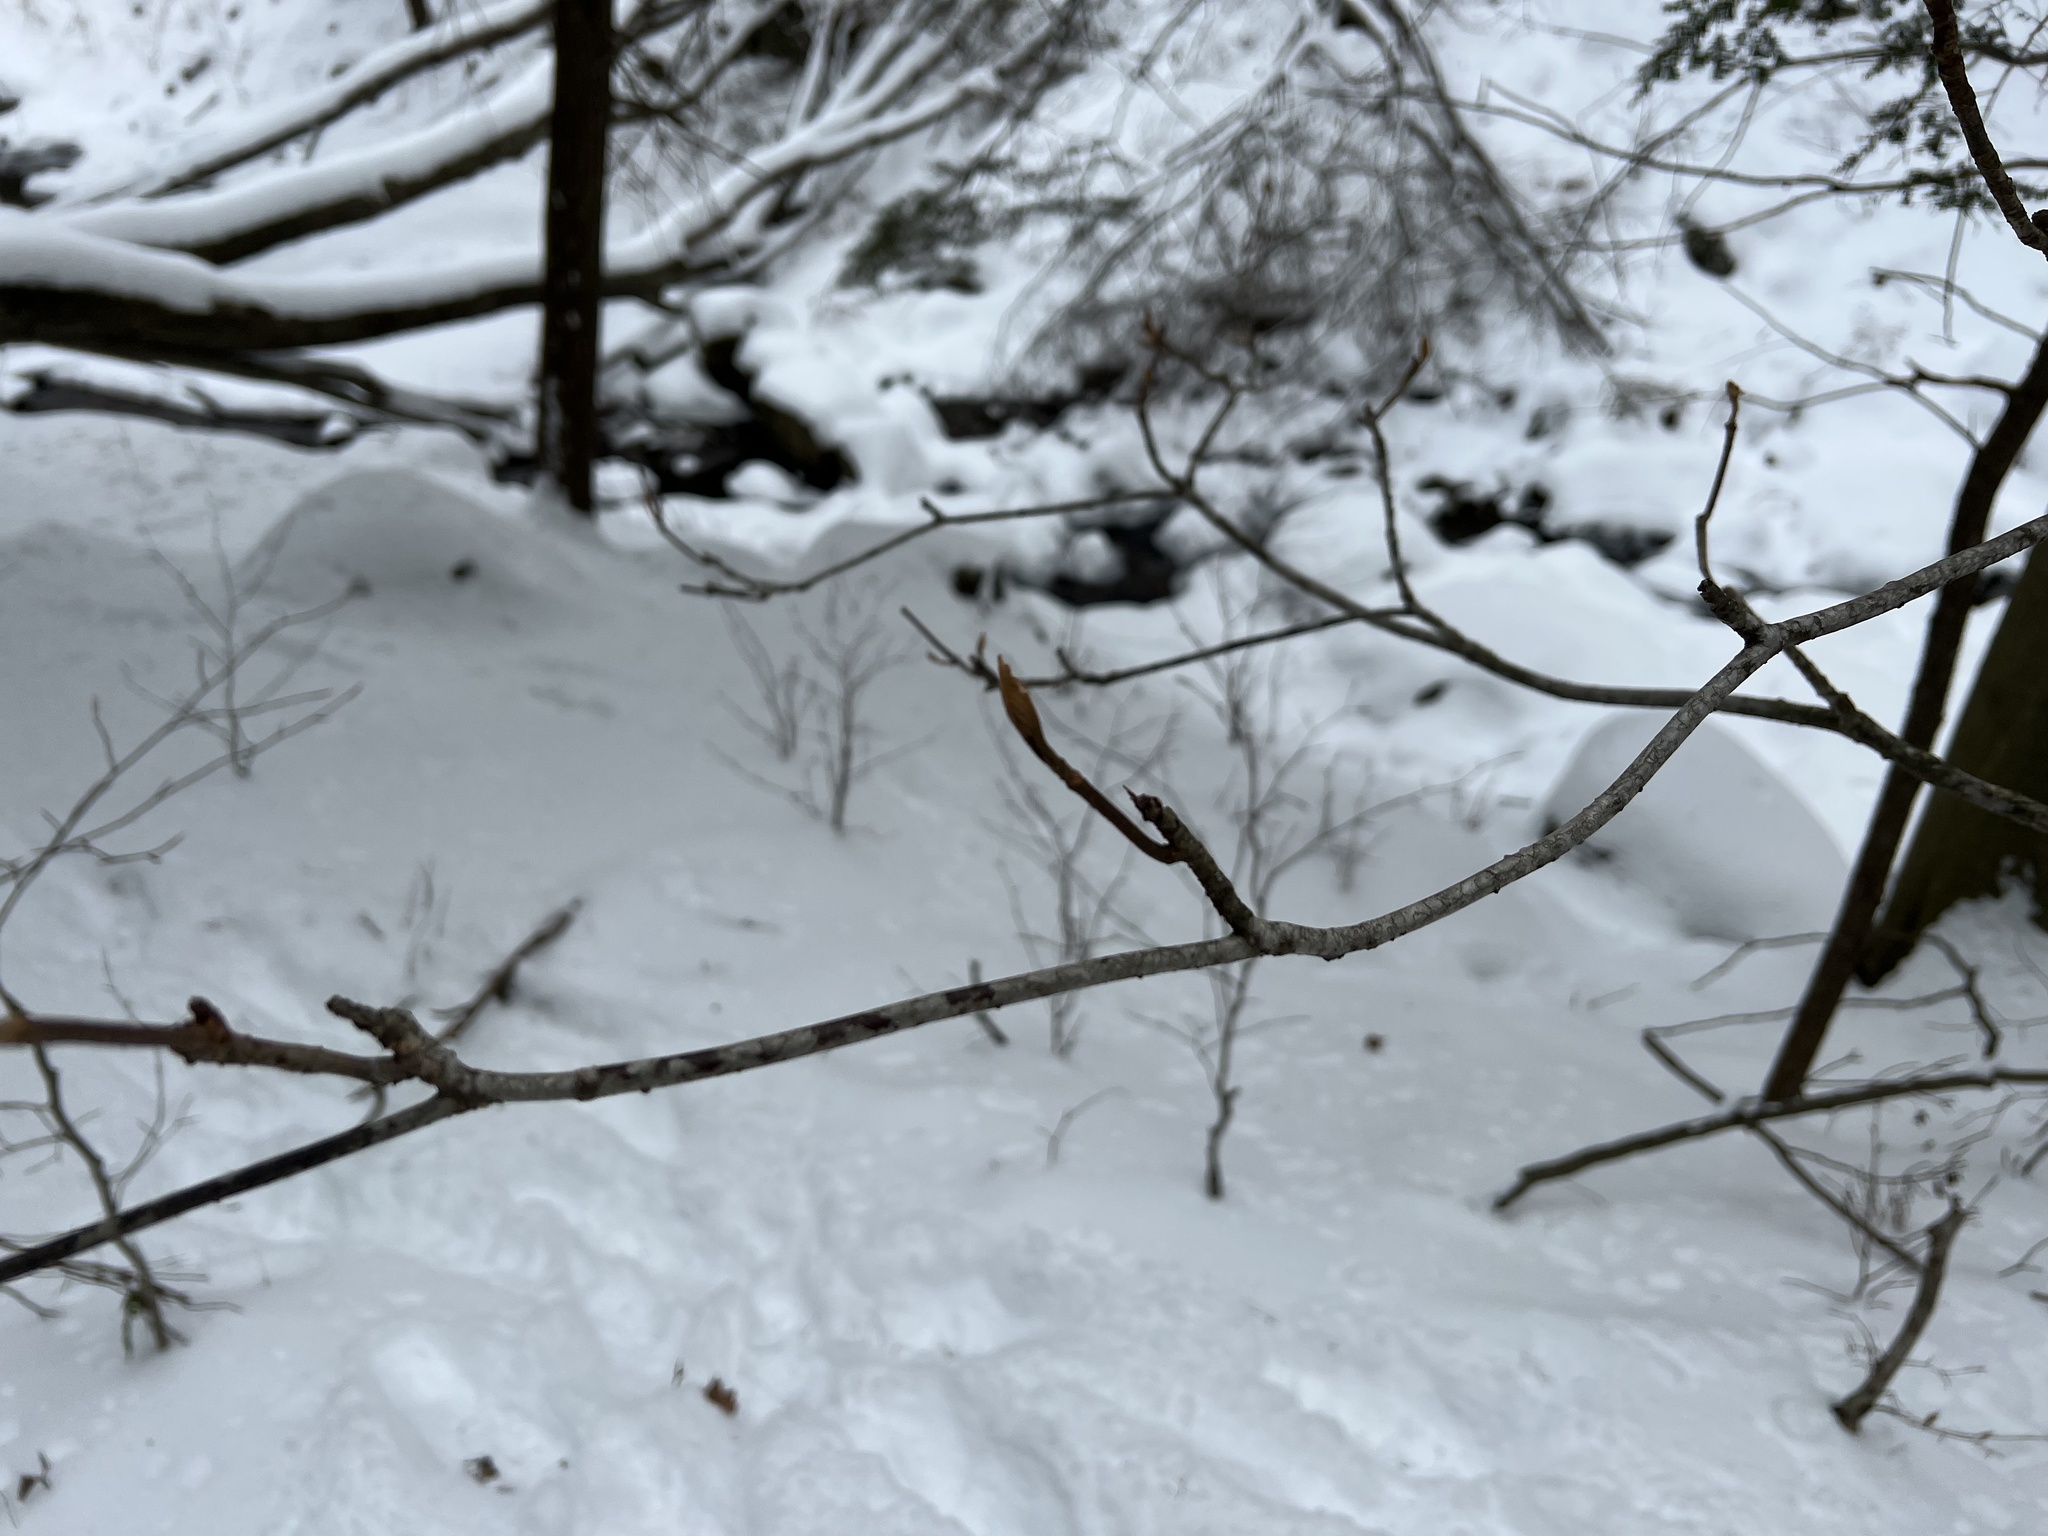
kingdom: Plantae
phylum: Tracheophyta
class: Magnoliopsida
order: Dipsacales
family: Viburnaceae
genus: Viburnum
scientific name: Viburnum lantanoides
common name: Hobblebush
